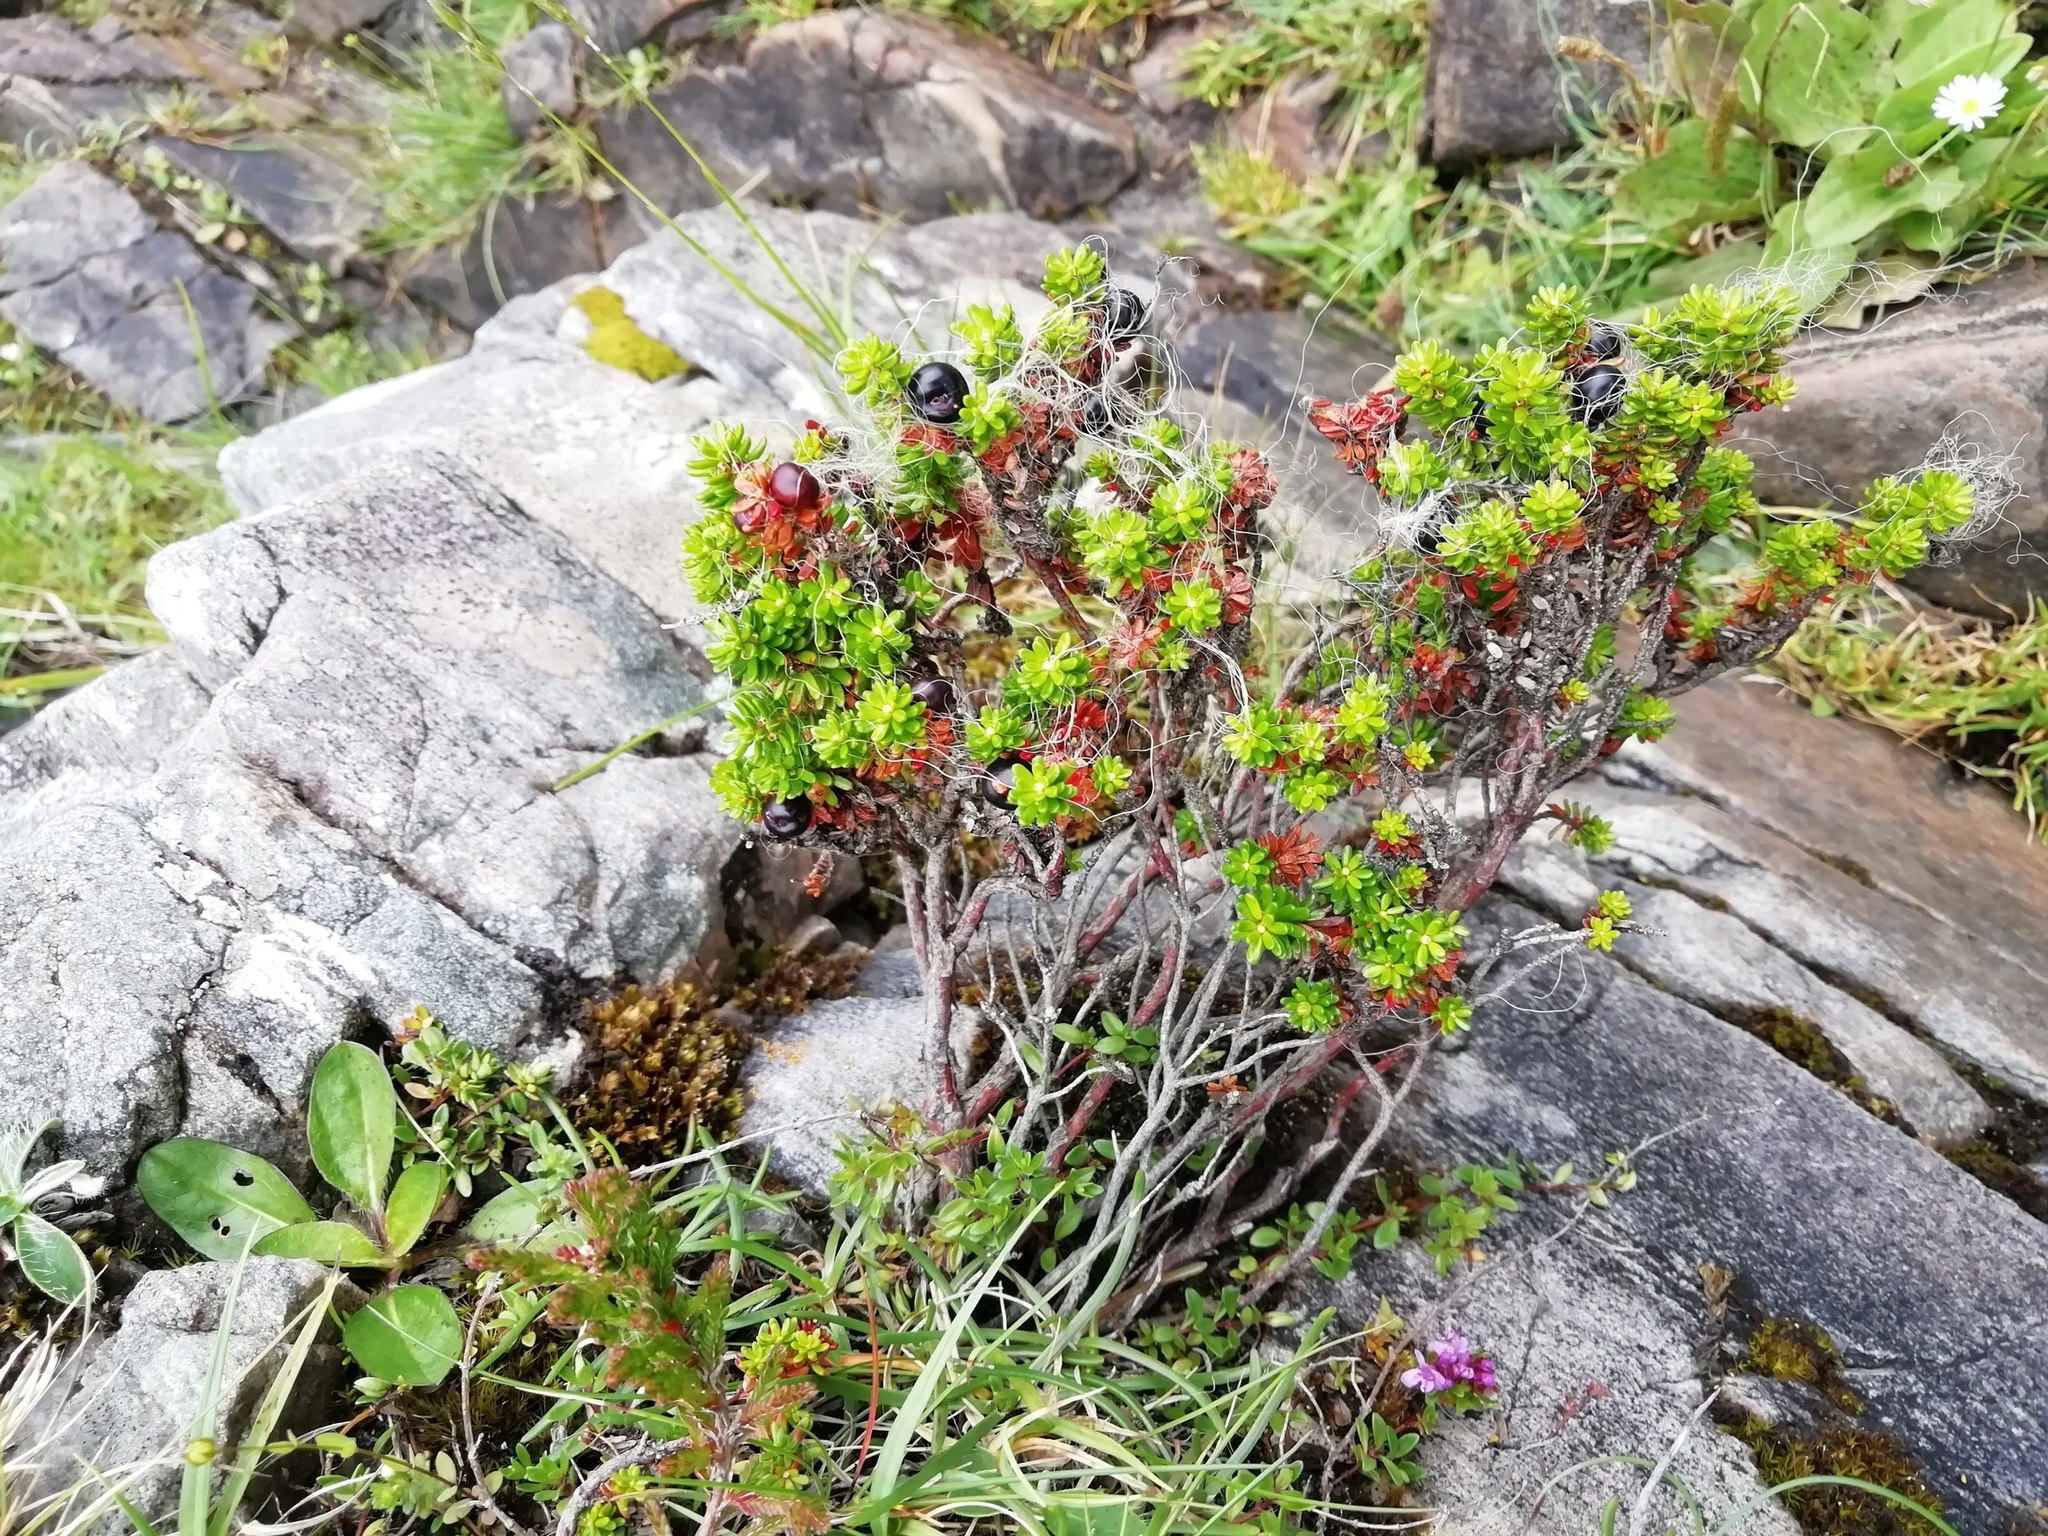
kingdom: Plantae
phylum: Tracheophyta
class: Magnoliopsida
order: Ericales
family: Ericaceae
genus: Empetrum
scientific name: Empetrum nigrum
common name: Black crowberry
